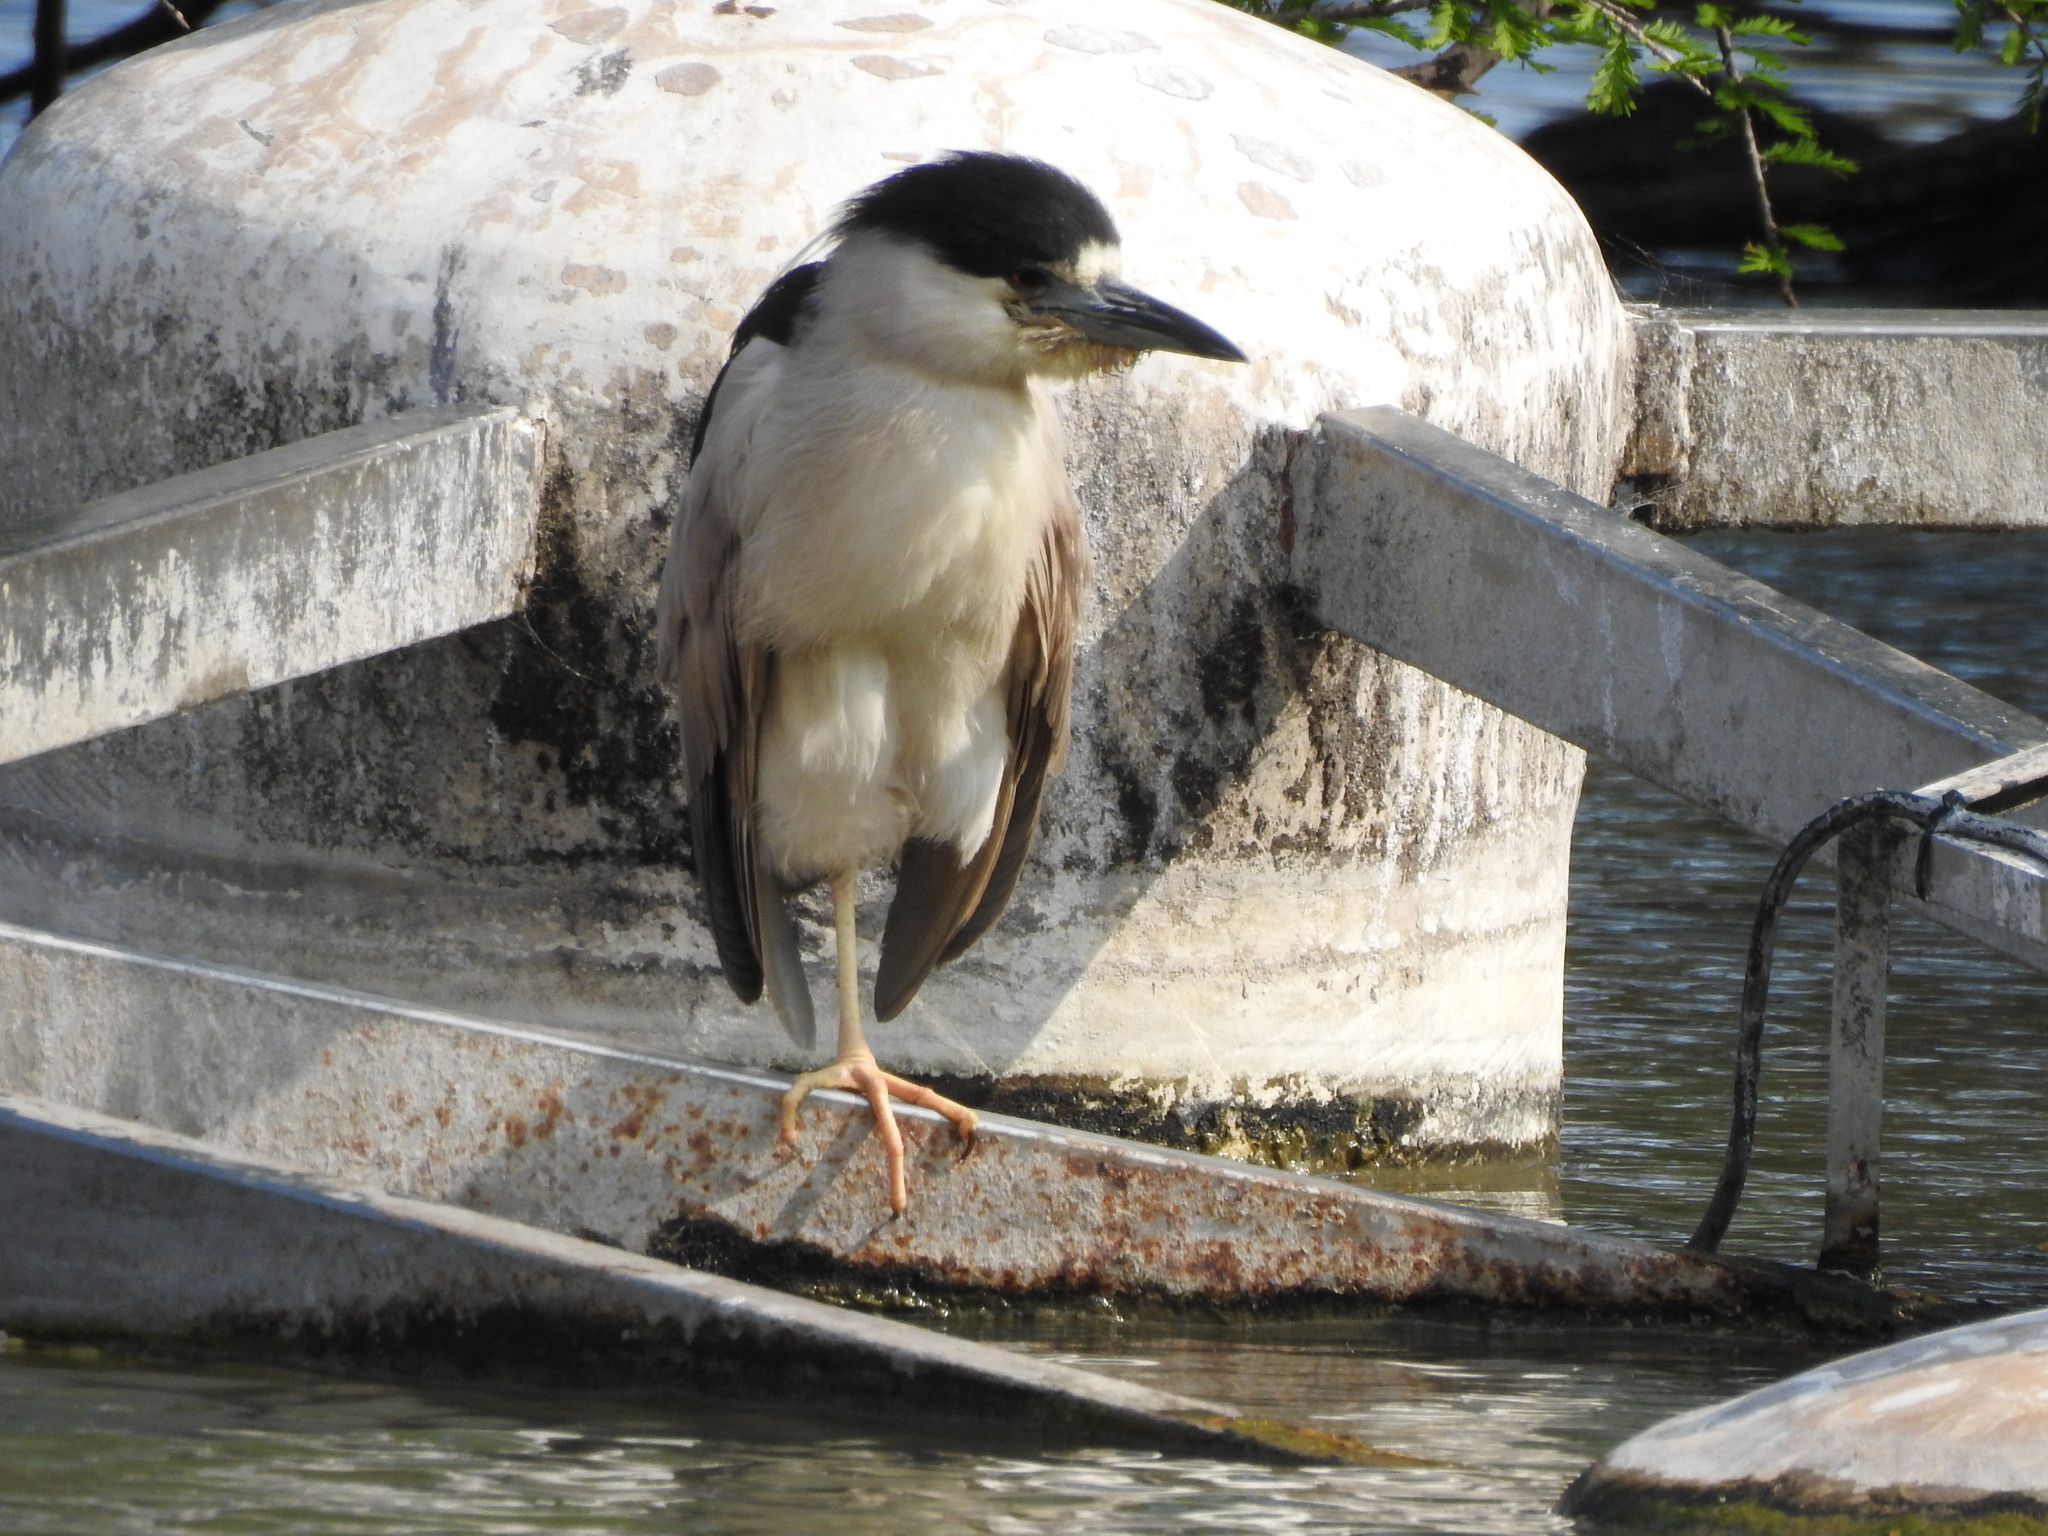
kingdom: Animalia
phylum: Chordata
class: Aves
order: Pelecaniformes
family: Ardeidae
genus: Nycticorax
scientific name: Nycticorax nycticorax
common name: Black-crowned night heron
